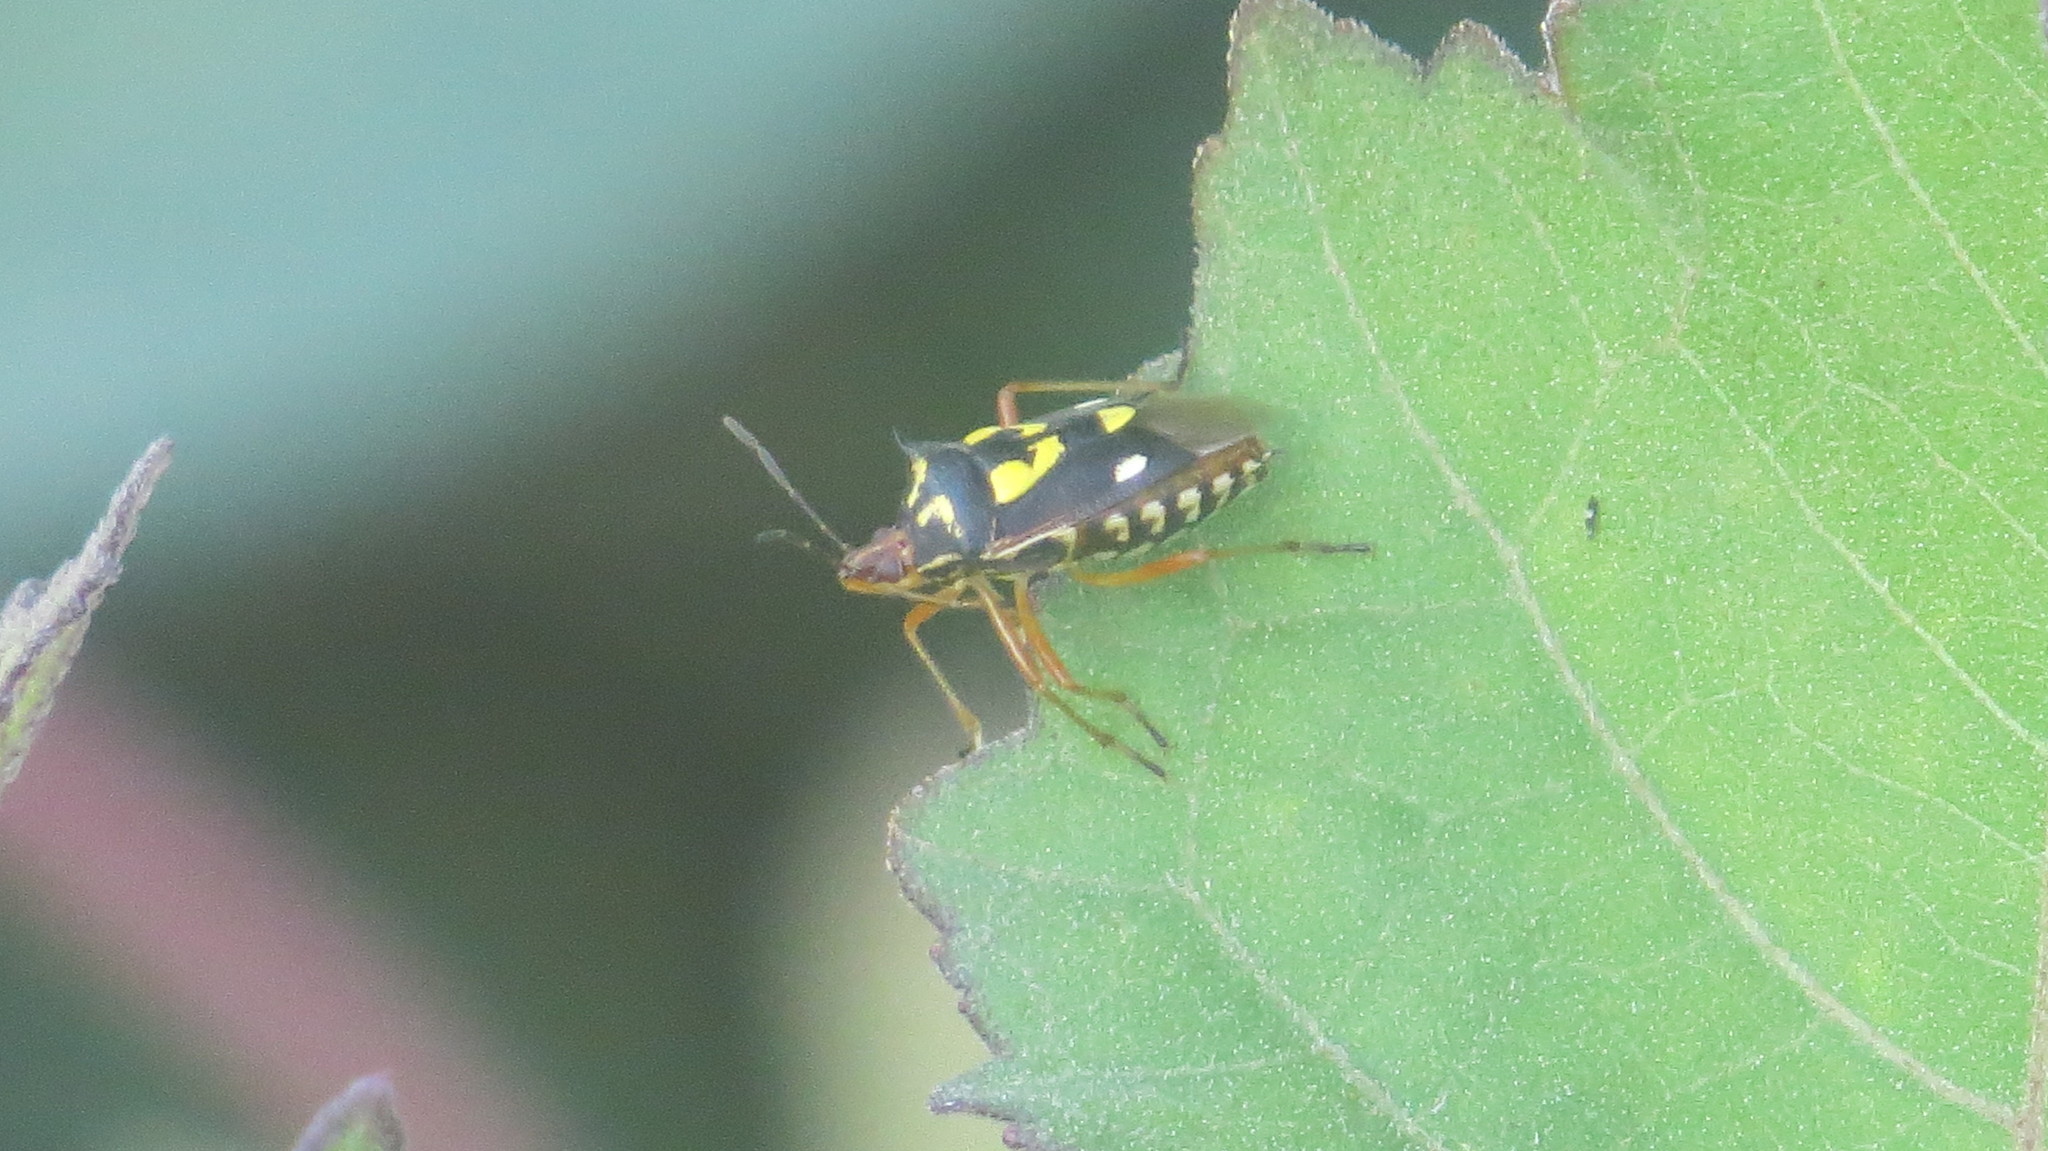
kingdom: Animalia
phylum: Arthropoda
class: Insecta
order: Hemiptera
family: Pentatomidae
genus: Oebalus
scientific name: Oebalus poecilus
